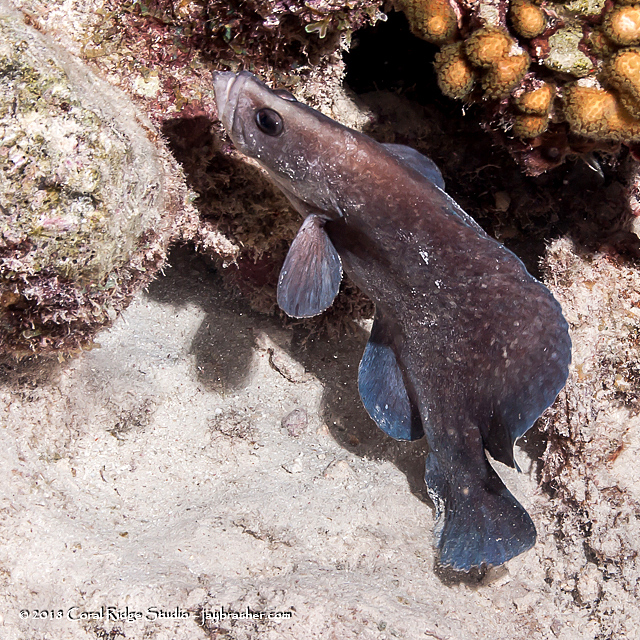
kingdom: Animalia
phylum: Chordata
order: Perciformes
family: Serranidae
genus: Rypticus
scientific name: Rypticus saponaceus
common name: Soapfish
